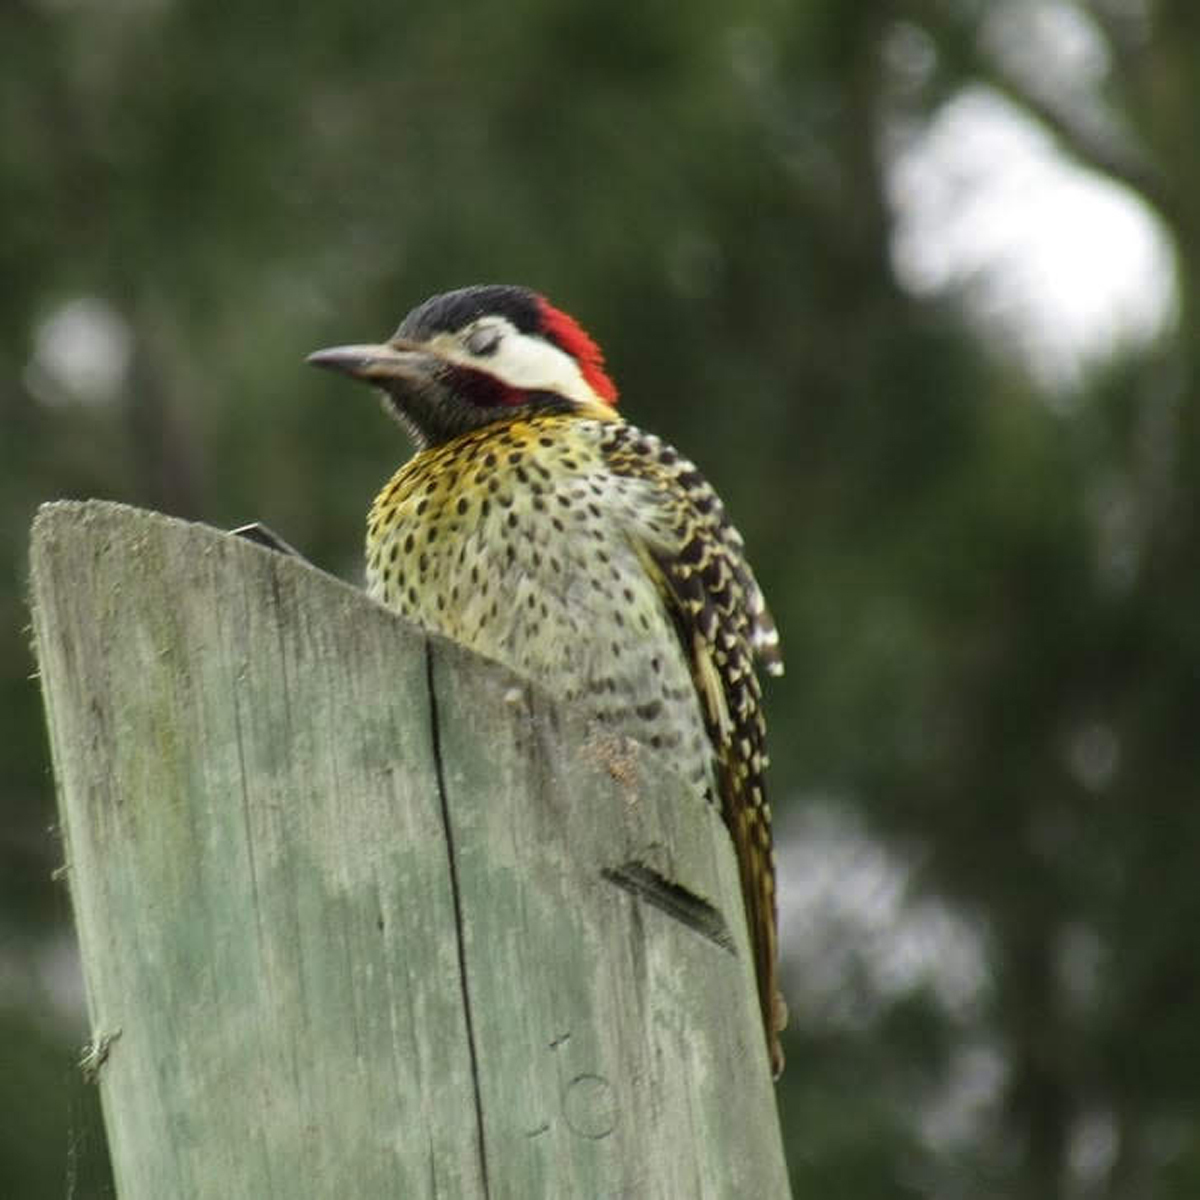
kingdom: Animalia
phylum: Chordata
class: Aves
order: Piciformes
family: Picidae
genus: Colaptes
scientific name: Colaptes melanochloros
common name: Green-barred woodpecker
